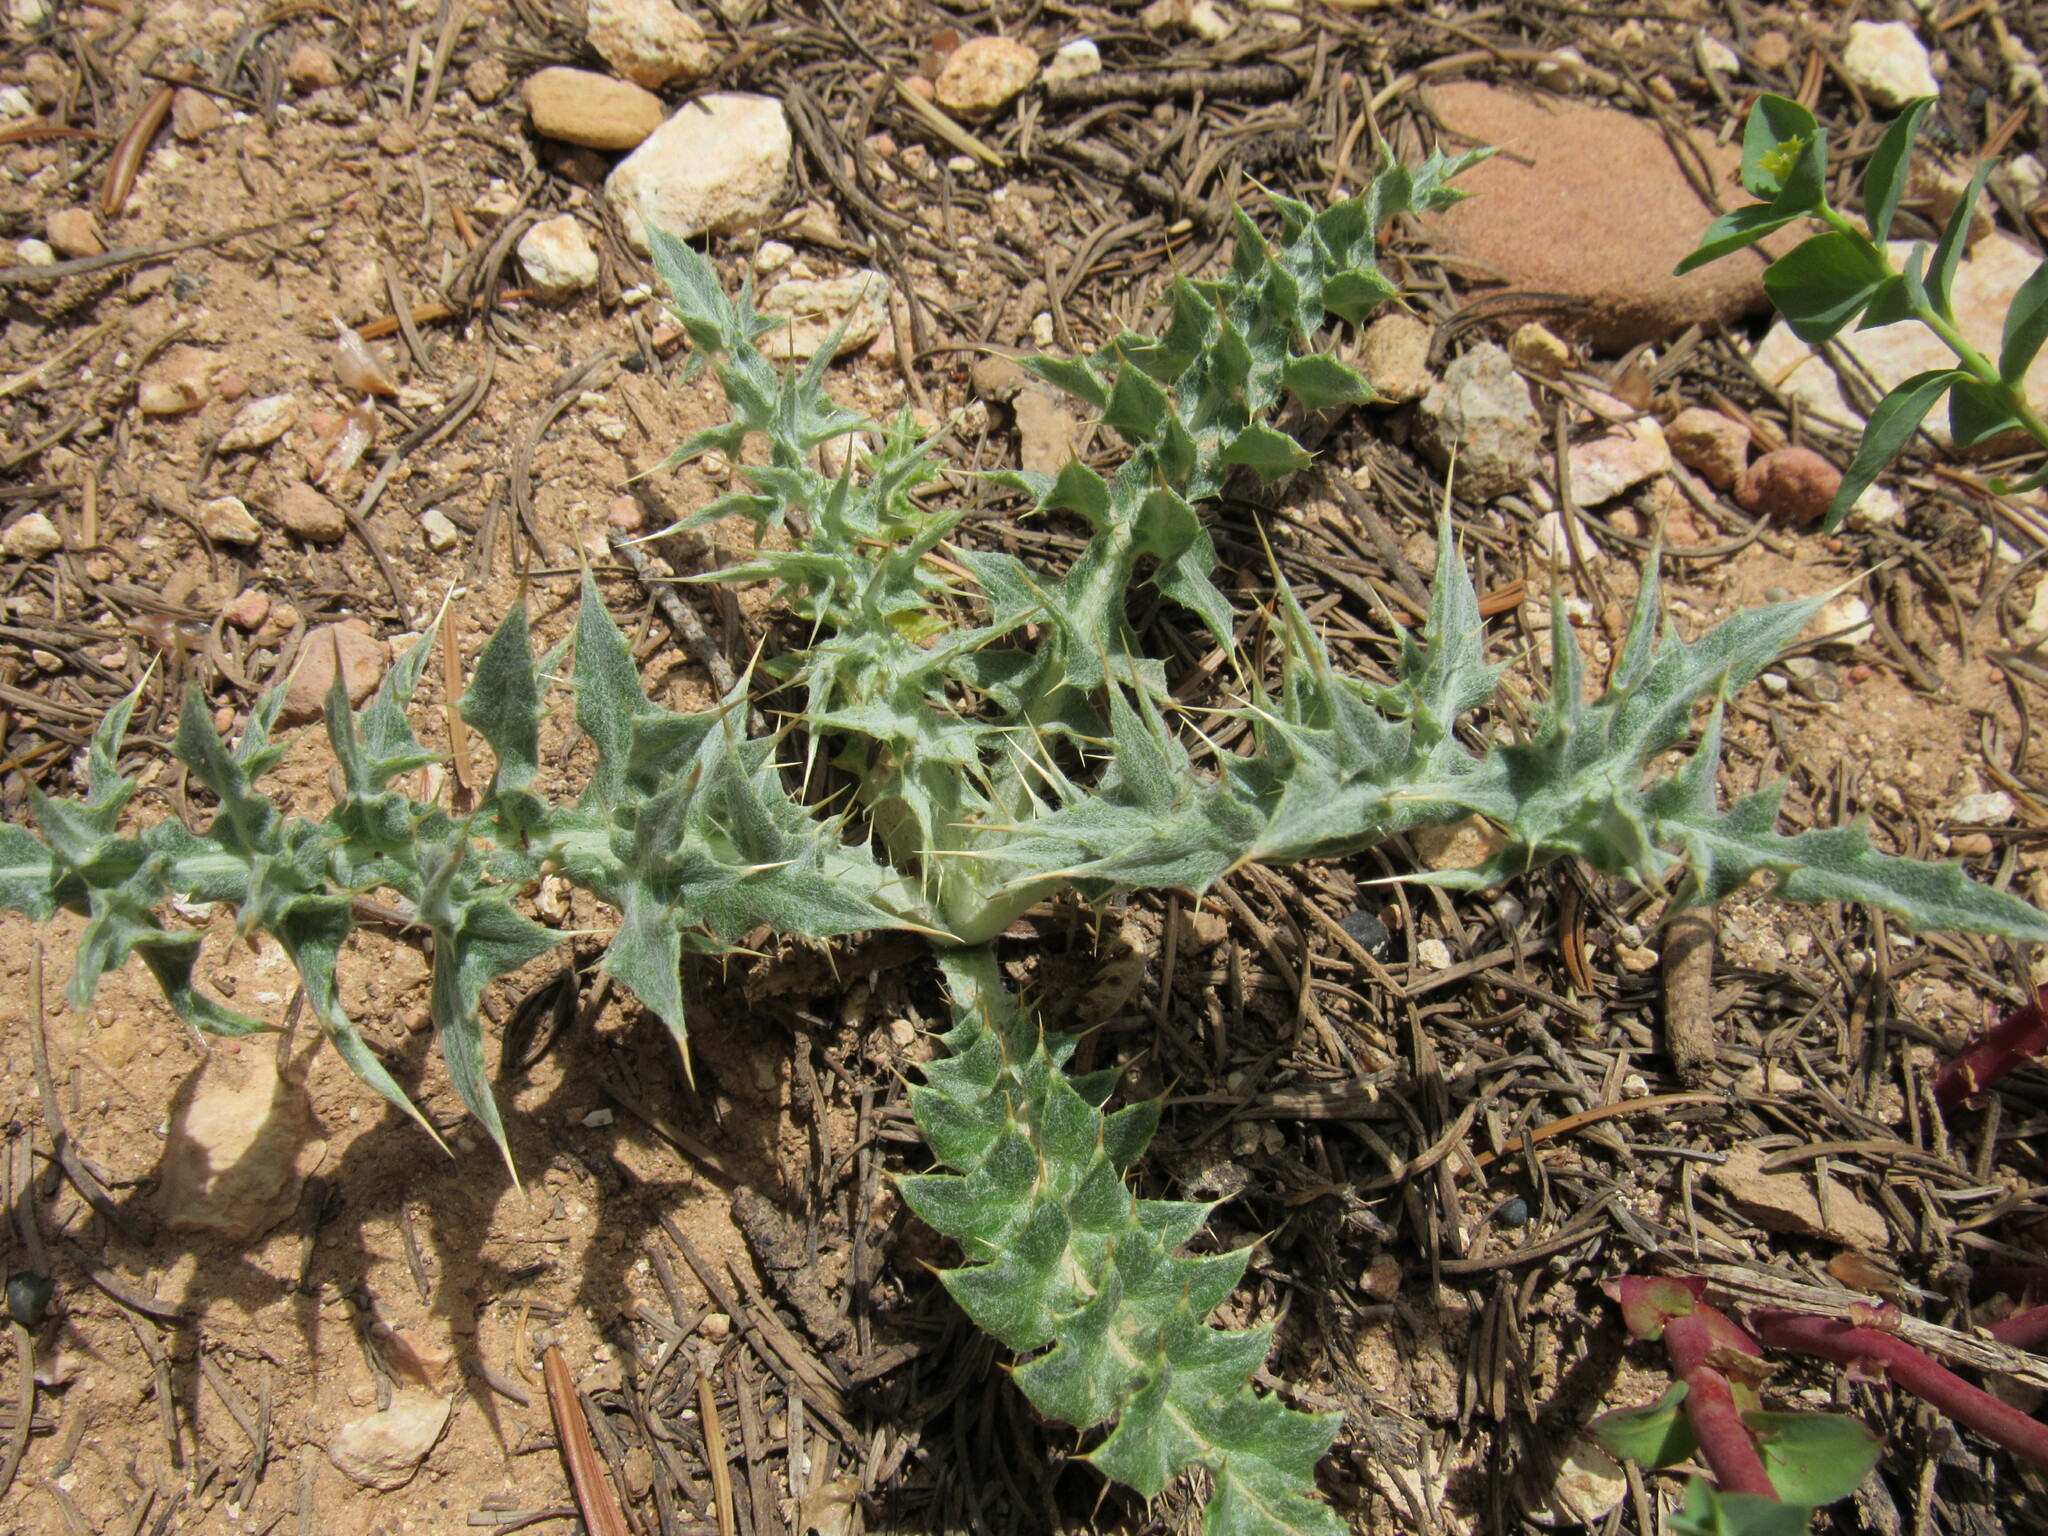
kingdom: Plantae
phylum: Tracheophyta
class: Magnoliopsida
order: Asterales
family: Asteraceae
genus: Cirsium
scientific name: Cirsium arizonicum
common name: Arizona thistle
